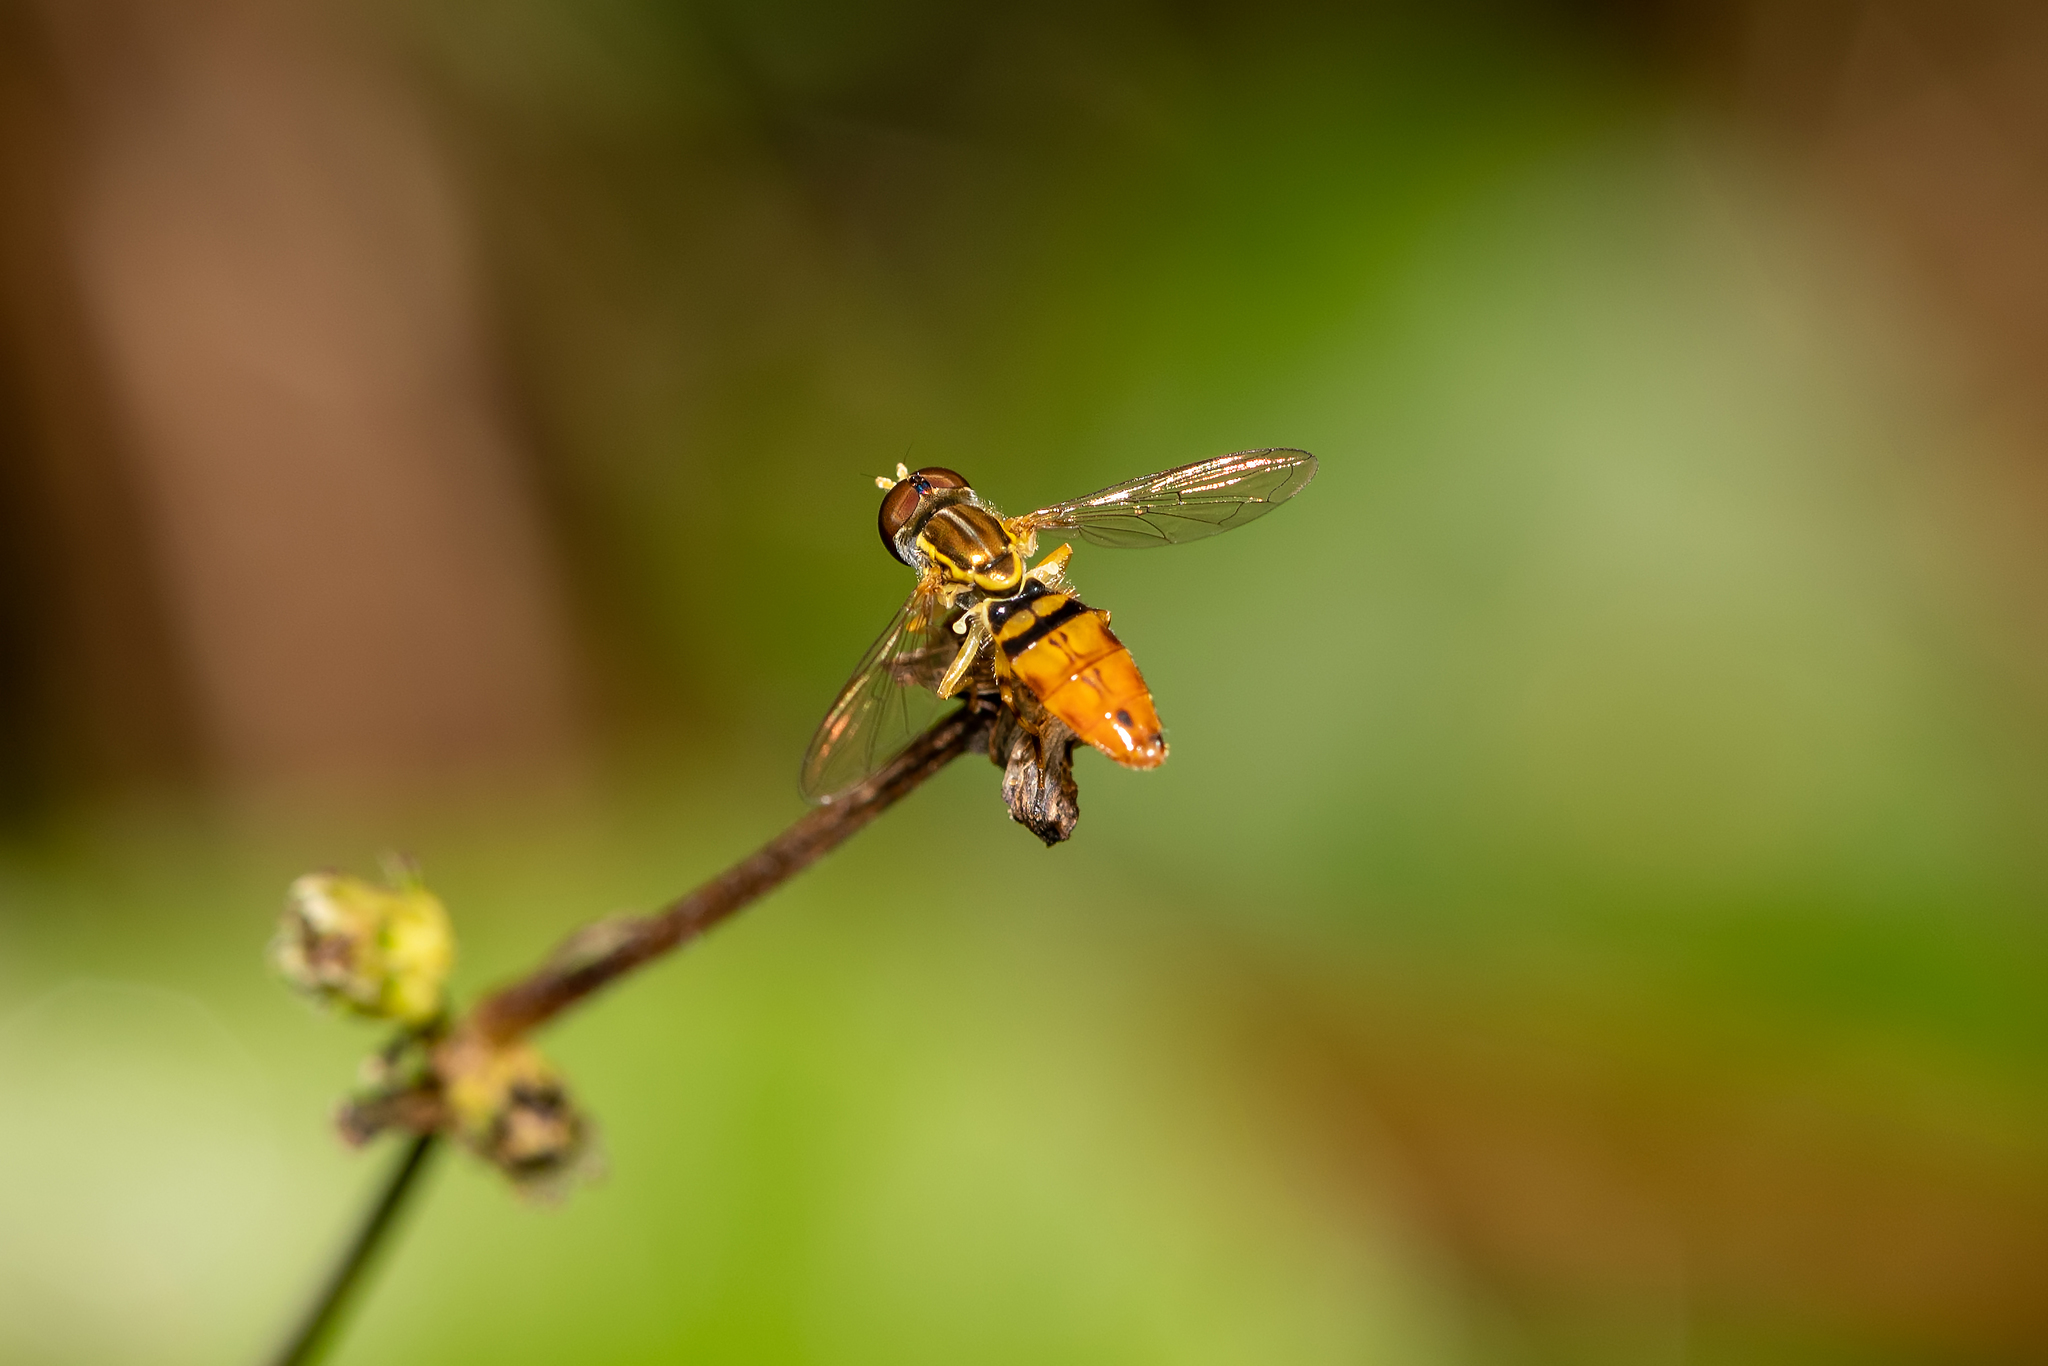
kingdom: Animalia
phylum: Arthropoda
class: Insecta
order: Diptera
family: Syrphidae
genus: Toxomerus
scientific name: Toxomerus floralis
